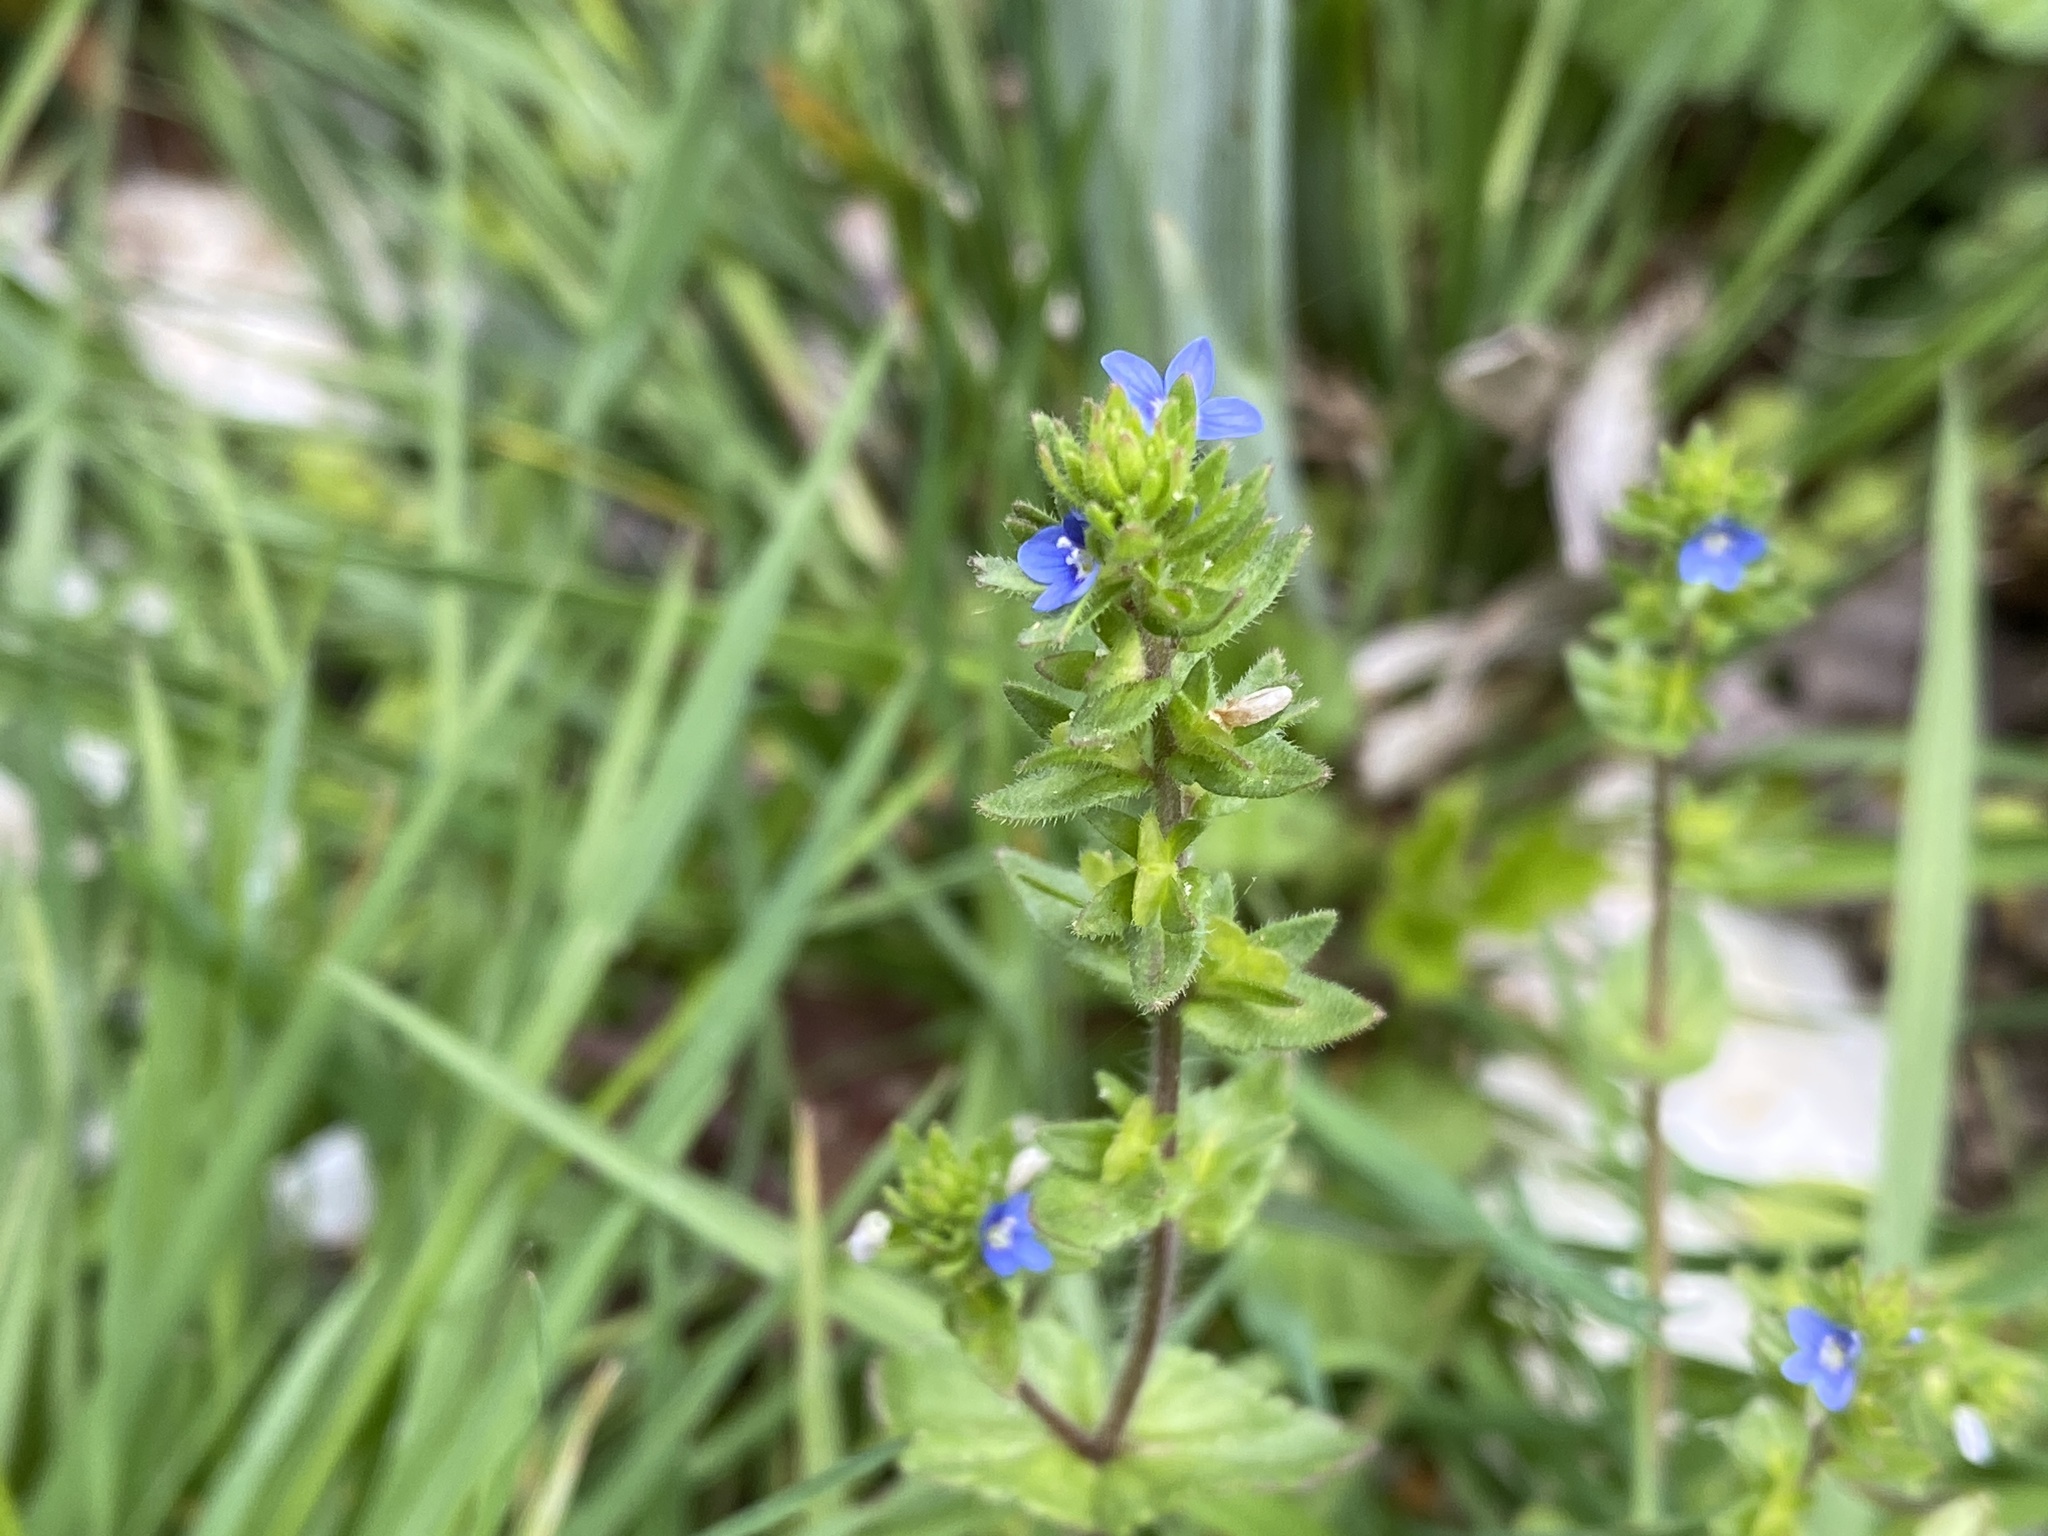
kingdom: Plantae
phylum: Tracheophyta
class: Magnoliopsida
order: Lamiales
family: Plantaginaceae
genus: Veronica
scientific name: Veronica arvensis
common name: Corn speedwell
